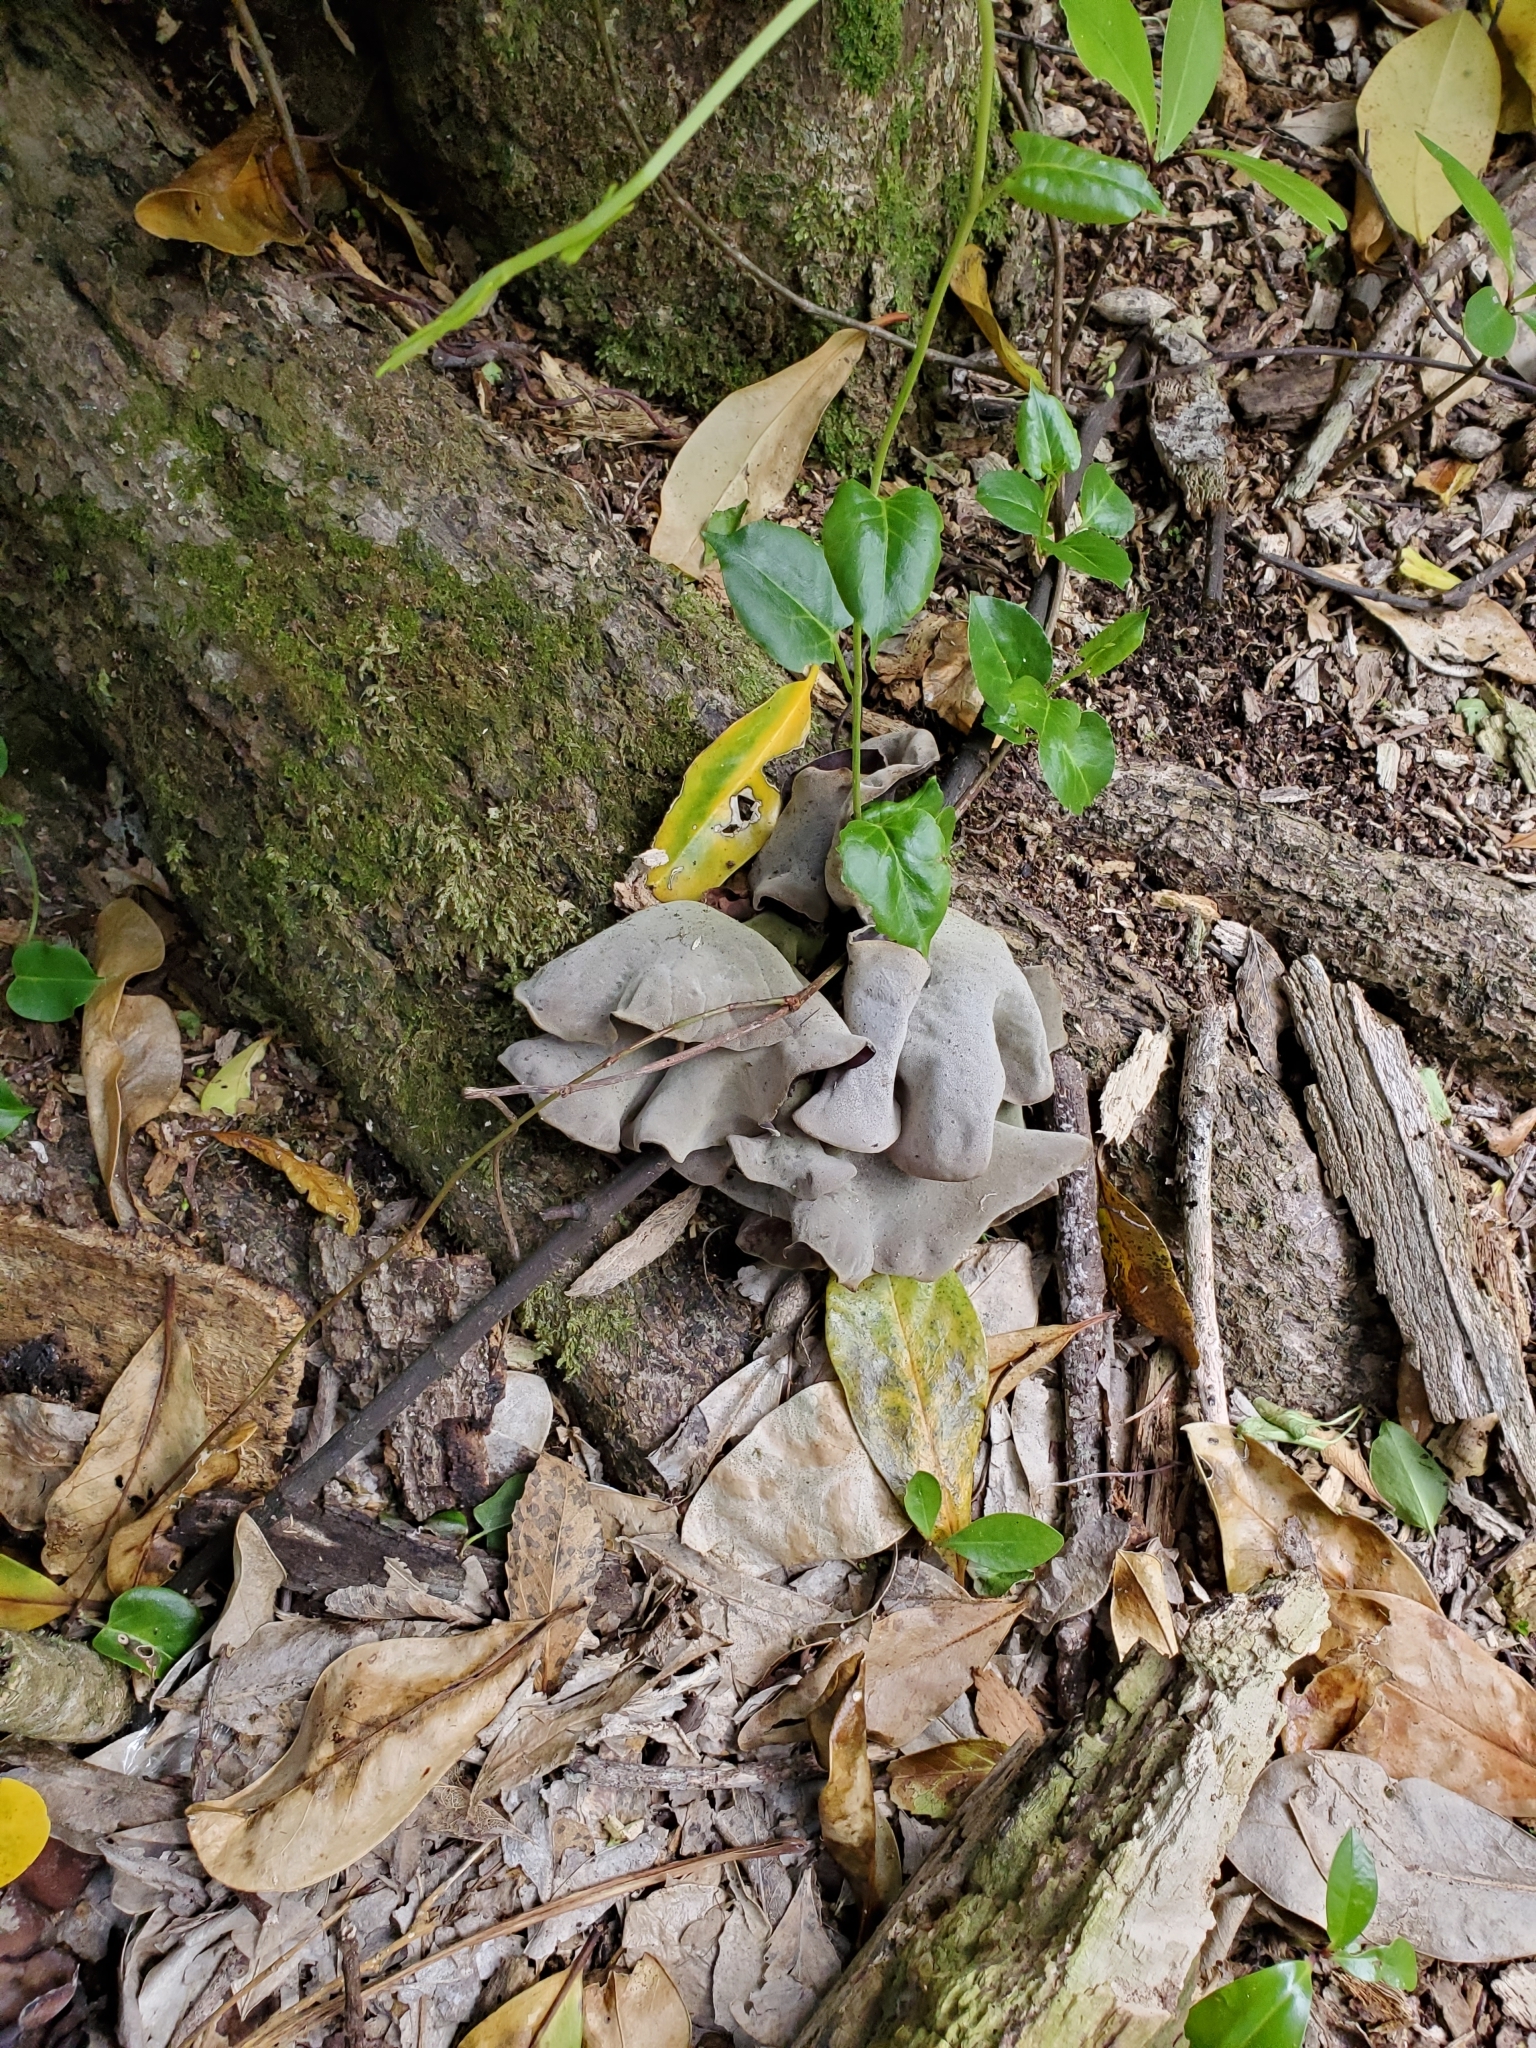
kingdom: Fungi
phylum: Basidiomycota
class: Agaricomycetes
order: Auriculariales
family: Auriculariaceae
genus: Auricularia
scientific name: Auricularia cornea
